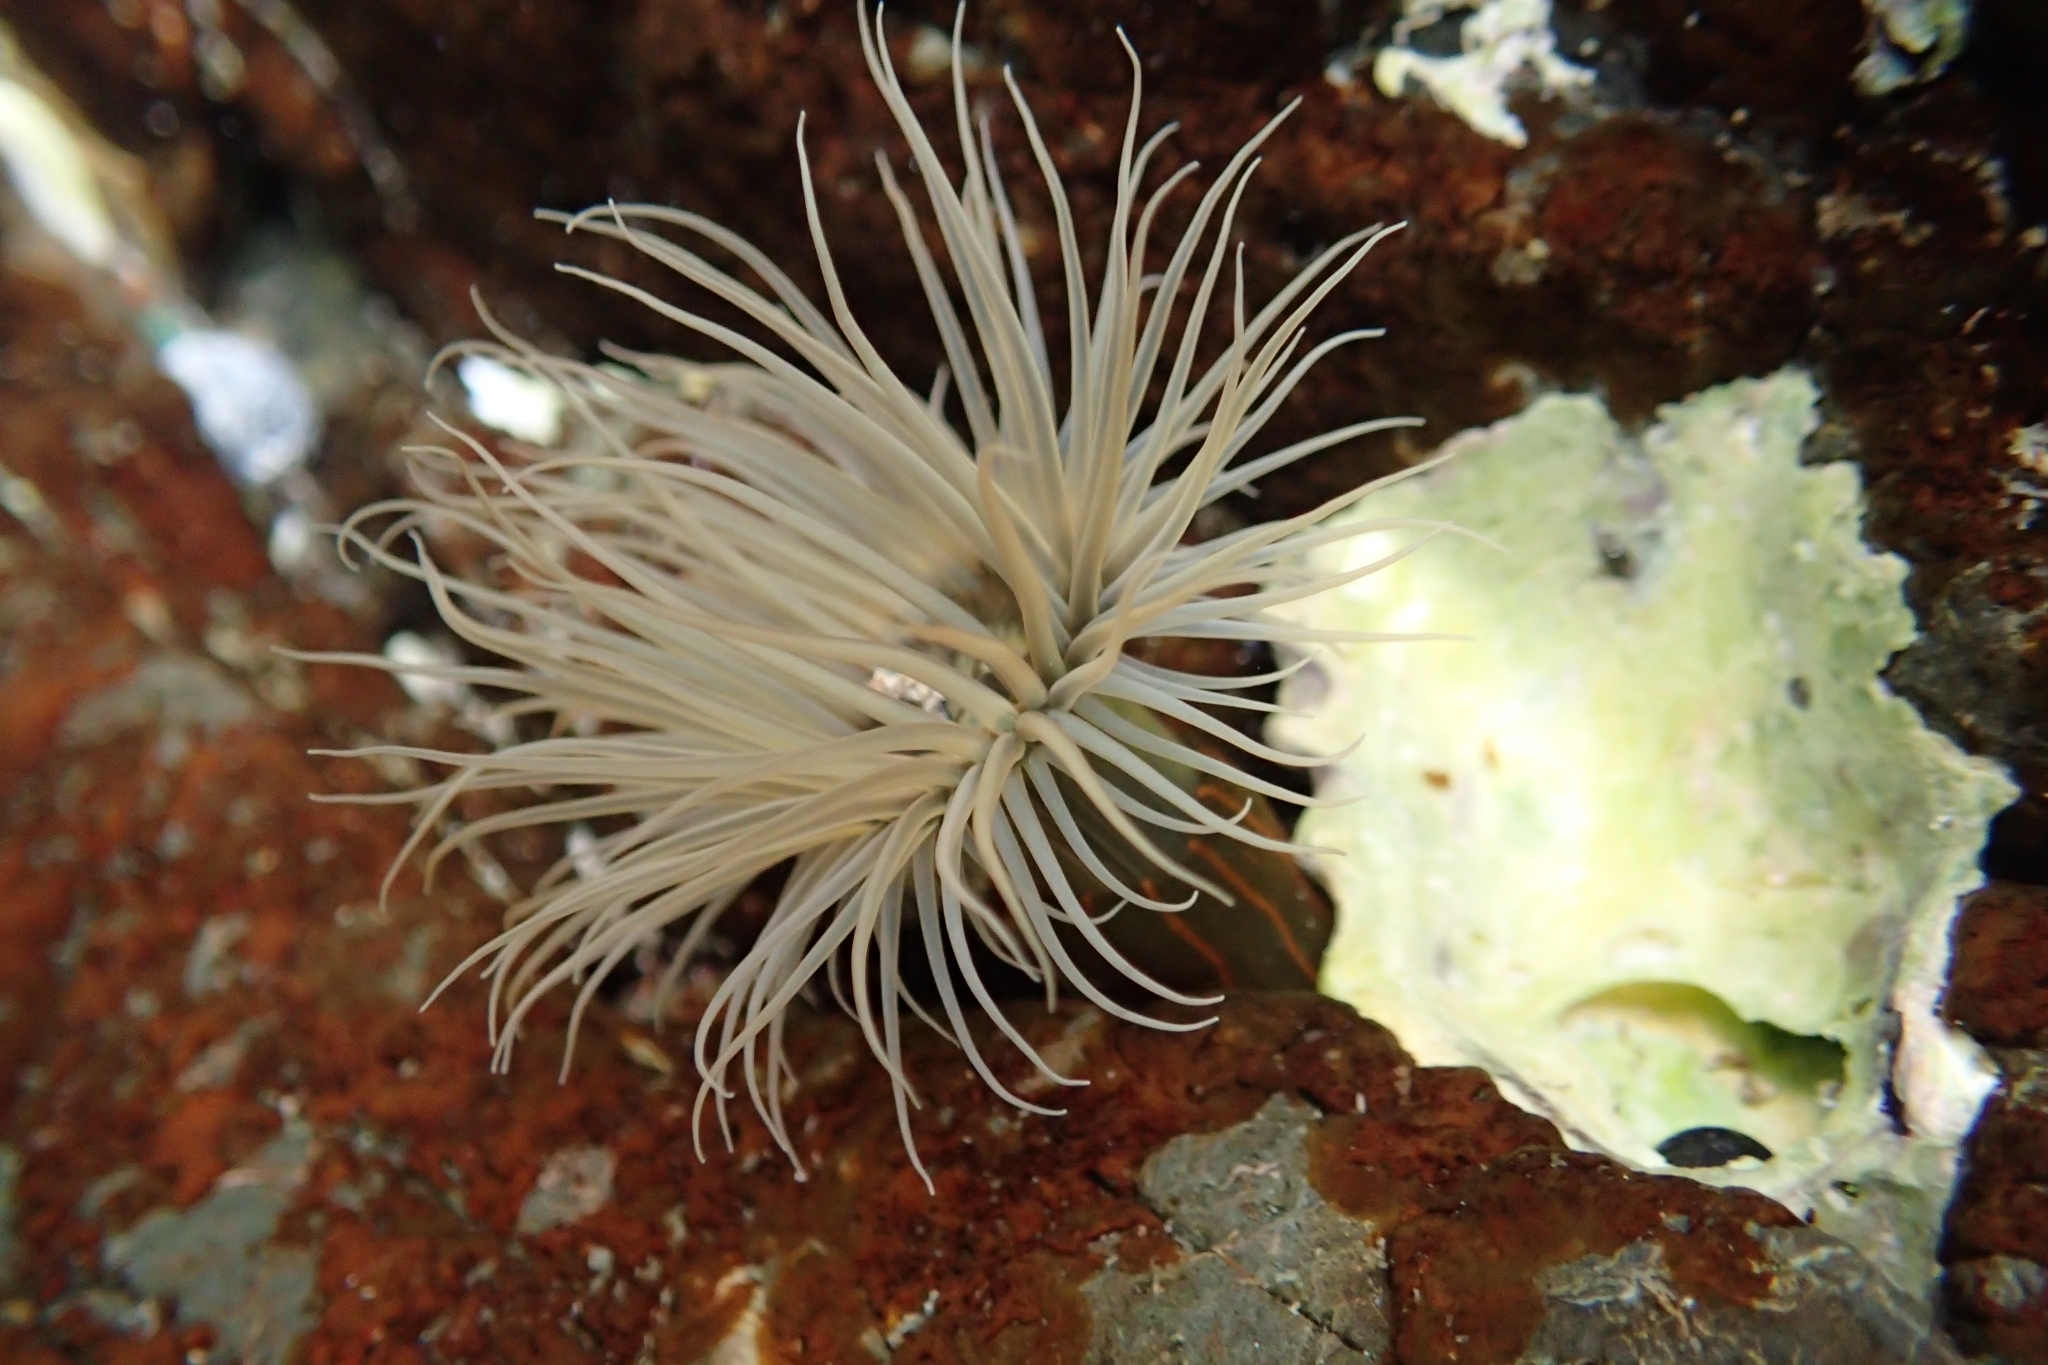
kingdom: Animalia
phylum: Cnidaria
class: Anthozoa
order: Actiniaria
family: Diadumenidae
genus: Diadumene
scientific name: Diadumene lineata
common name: Orange-striped anemone
